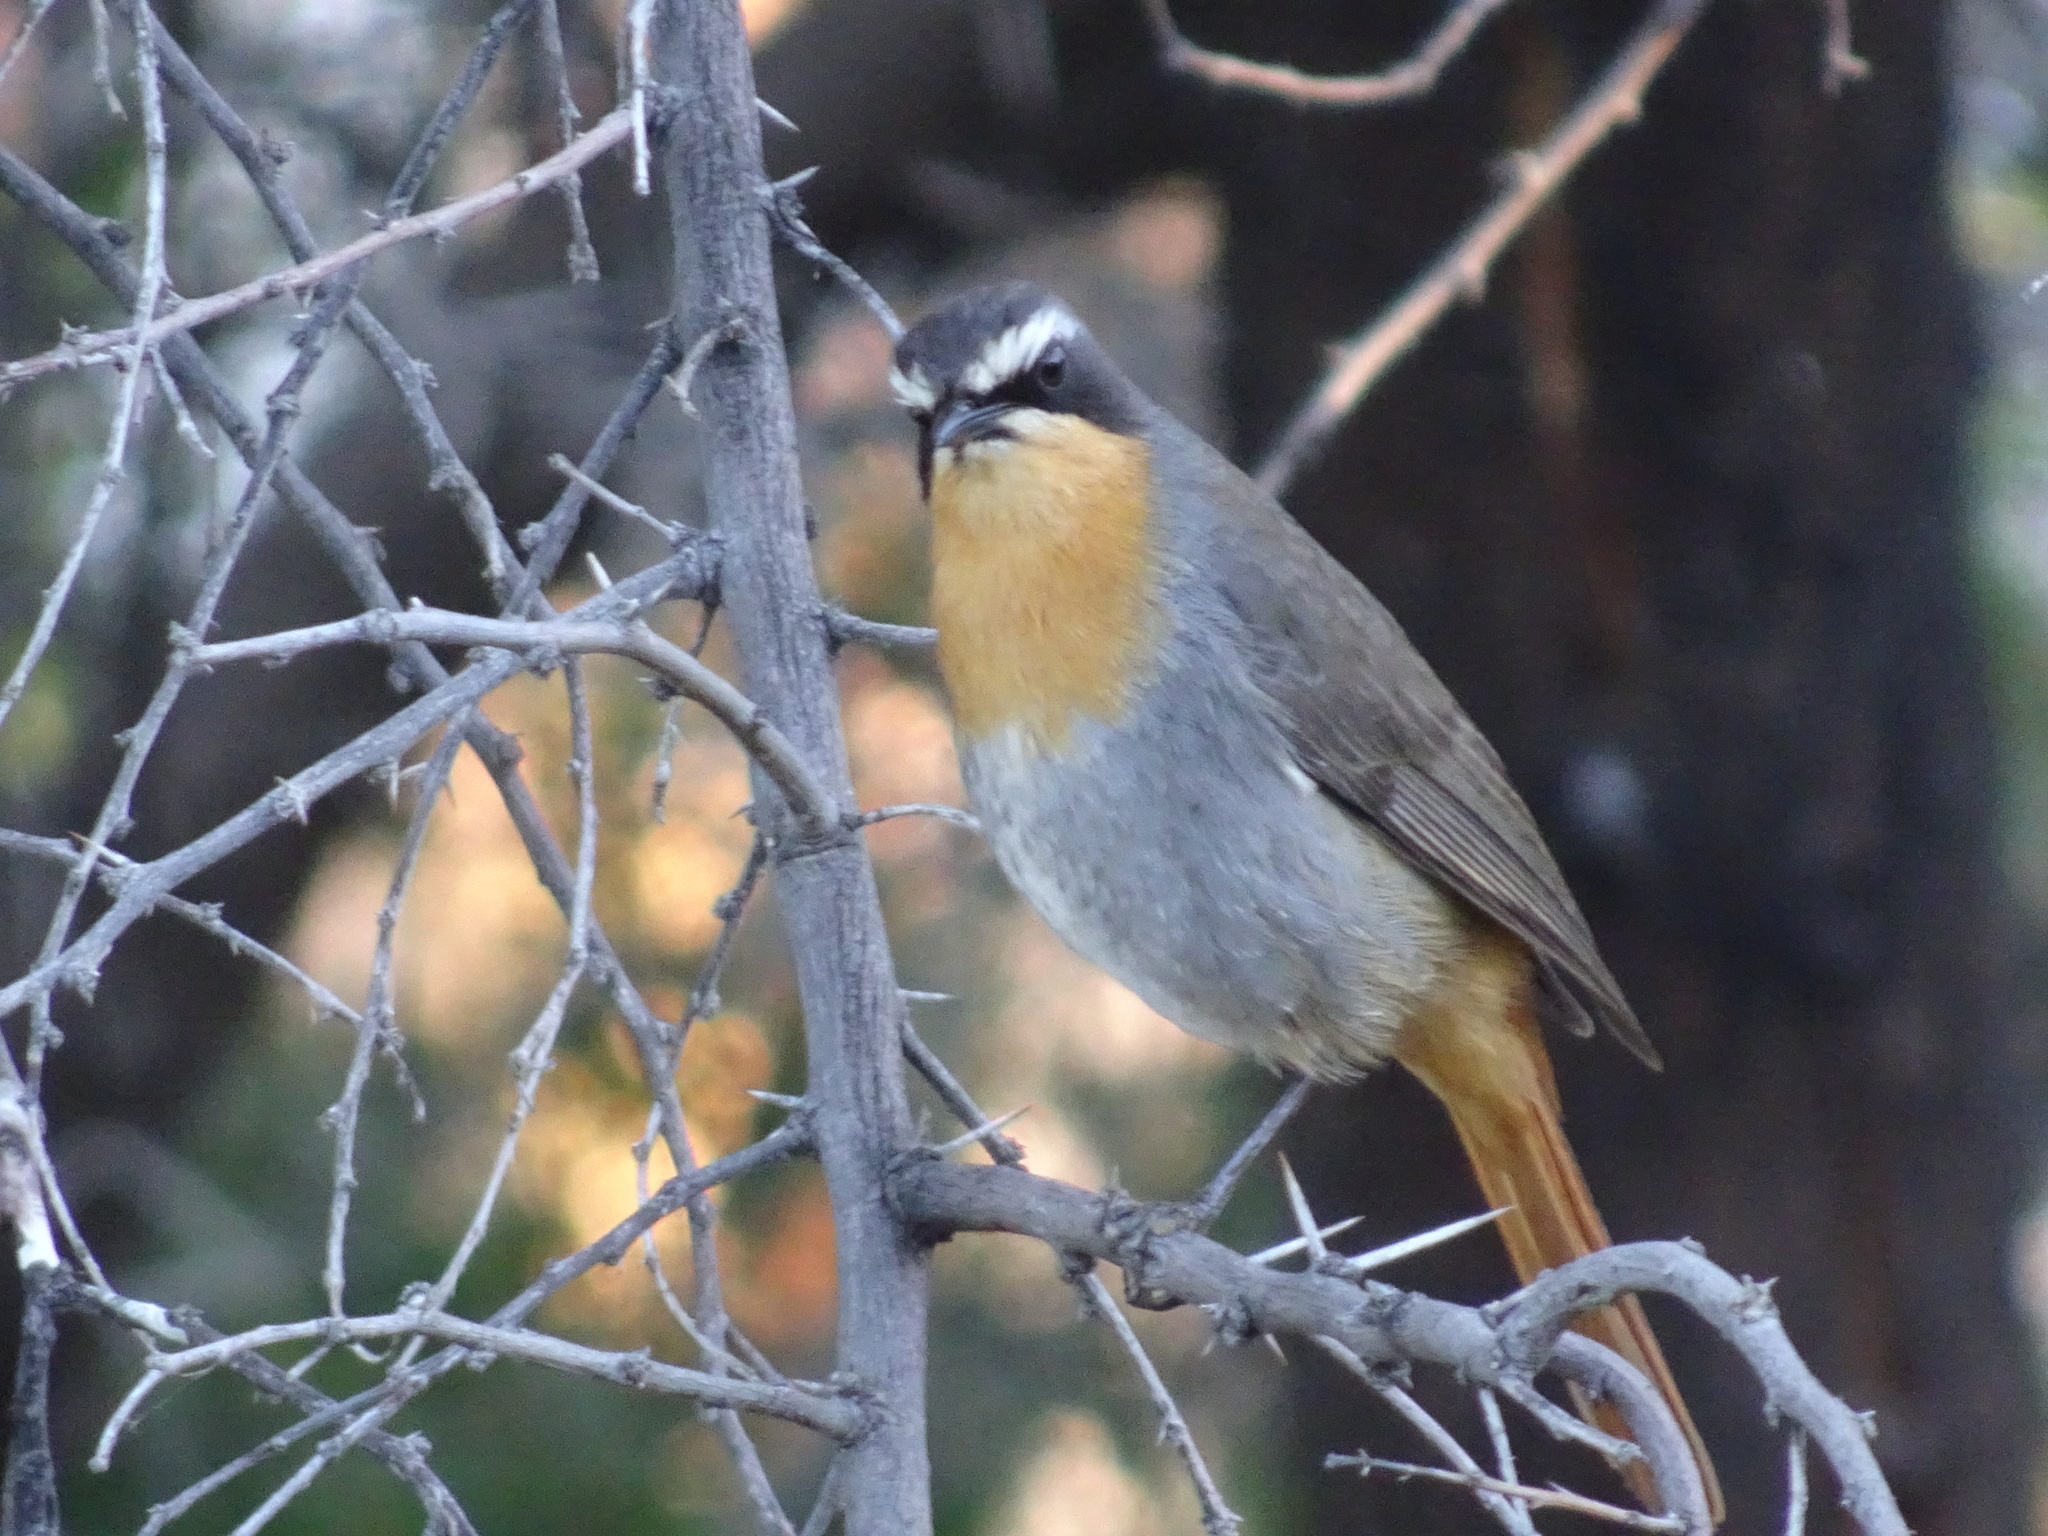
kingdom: Animalia
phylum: Chordata
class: Aves
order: Passeriformes
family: Muscicapidae
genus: Cossypha
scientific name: Cossypha caffra
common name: Cape robin-chat
